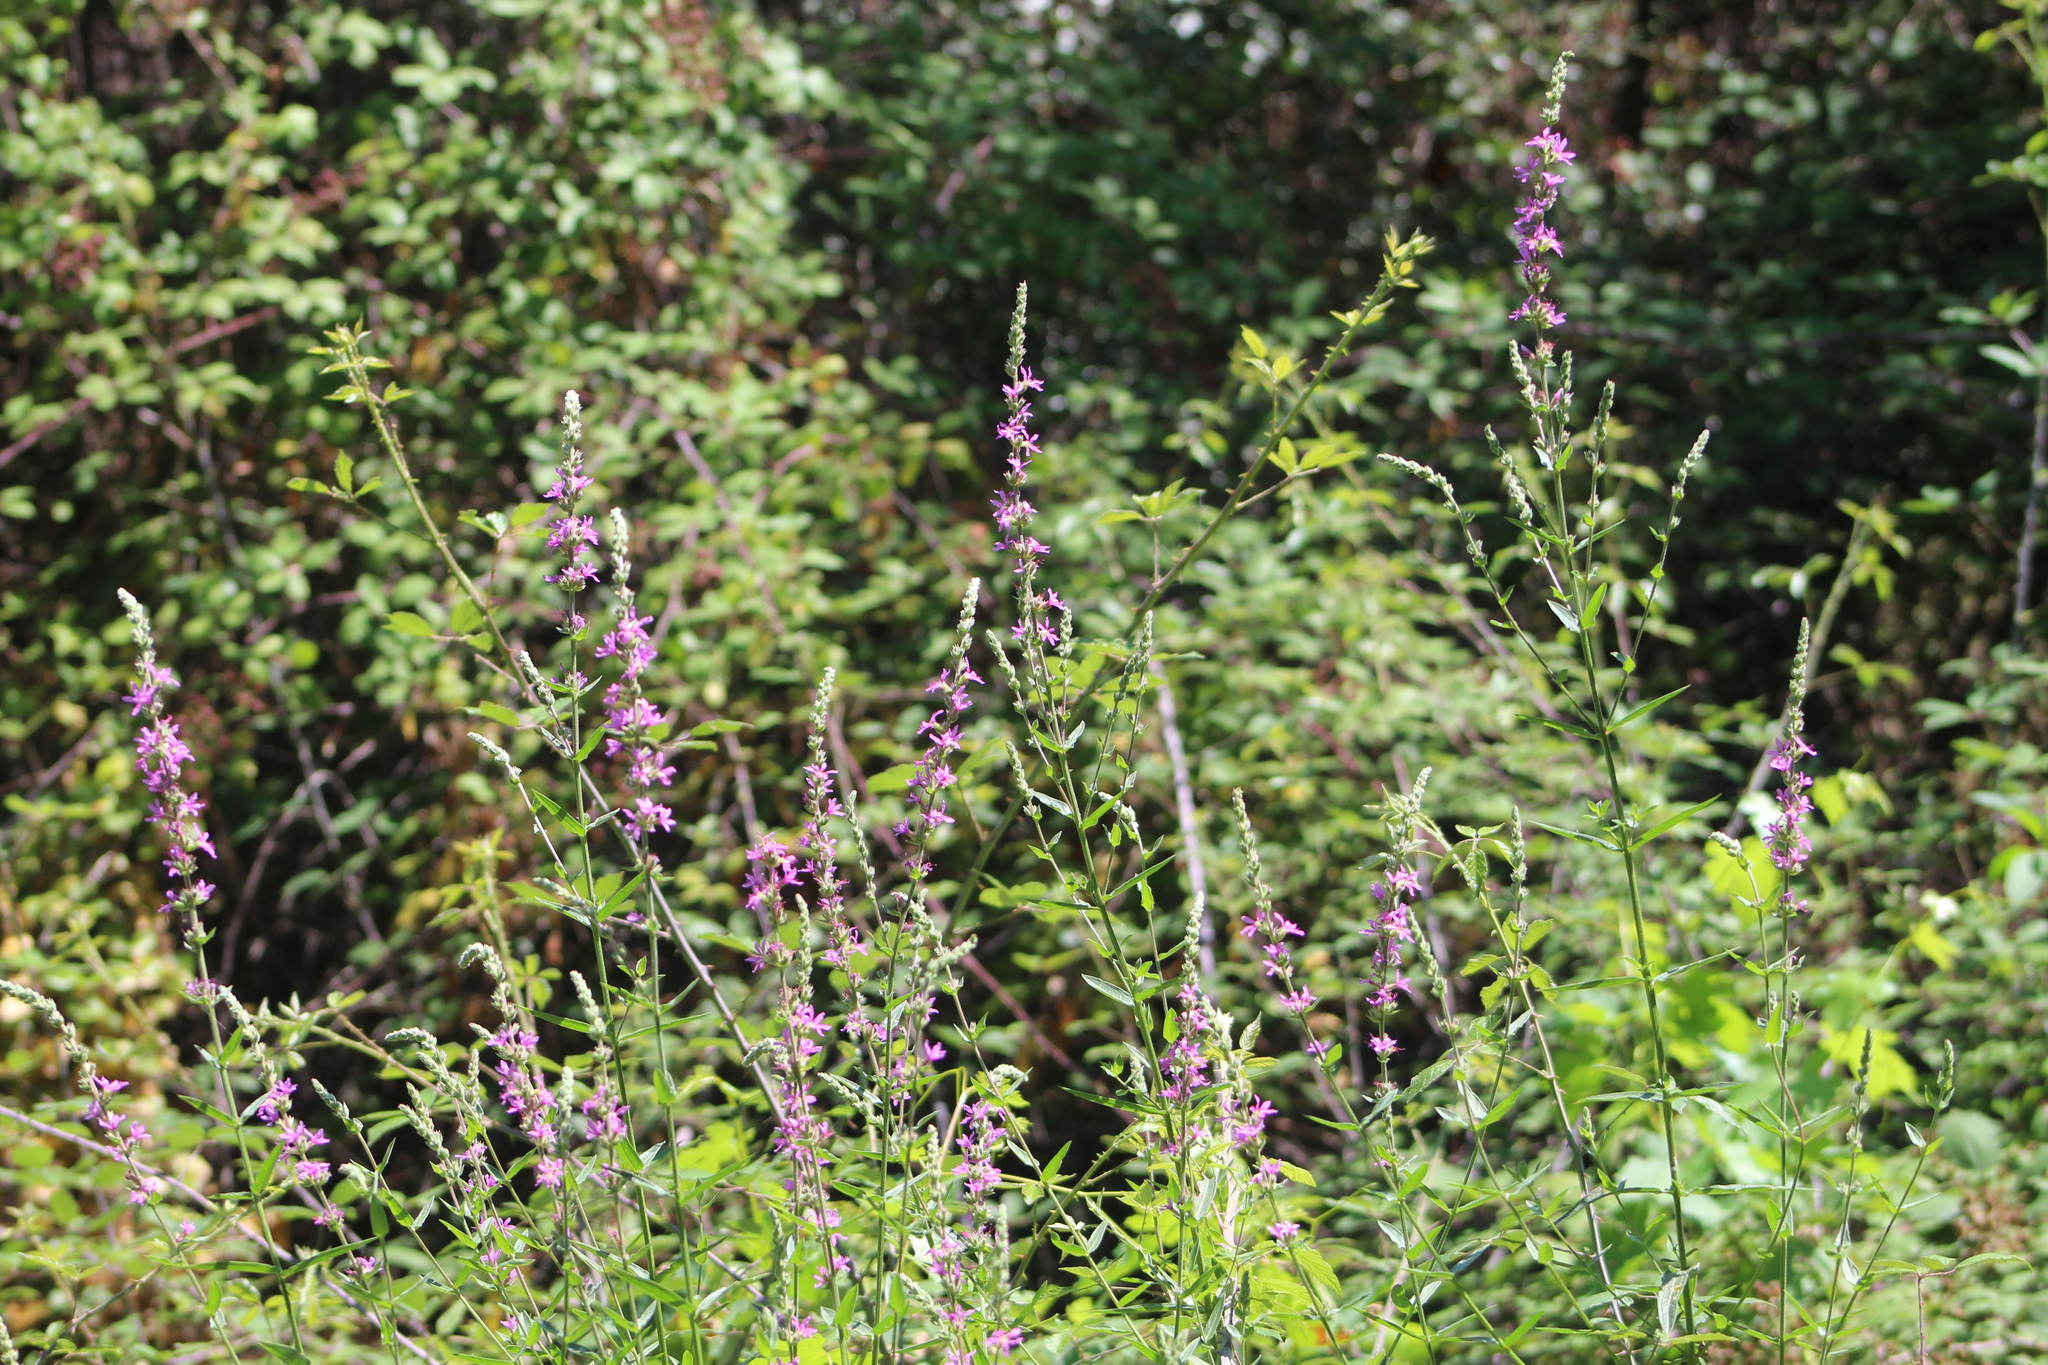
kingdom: Plantae
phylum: Tracheophyta
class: Magnoliopsida
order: Myrtales
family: Lythraceae
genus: Lythrum
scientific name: Lythrum salicaria
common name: Purple loosestrife
